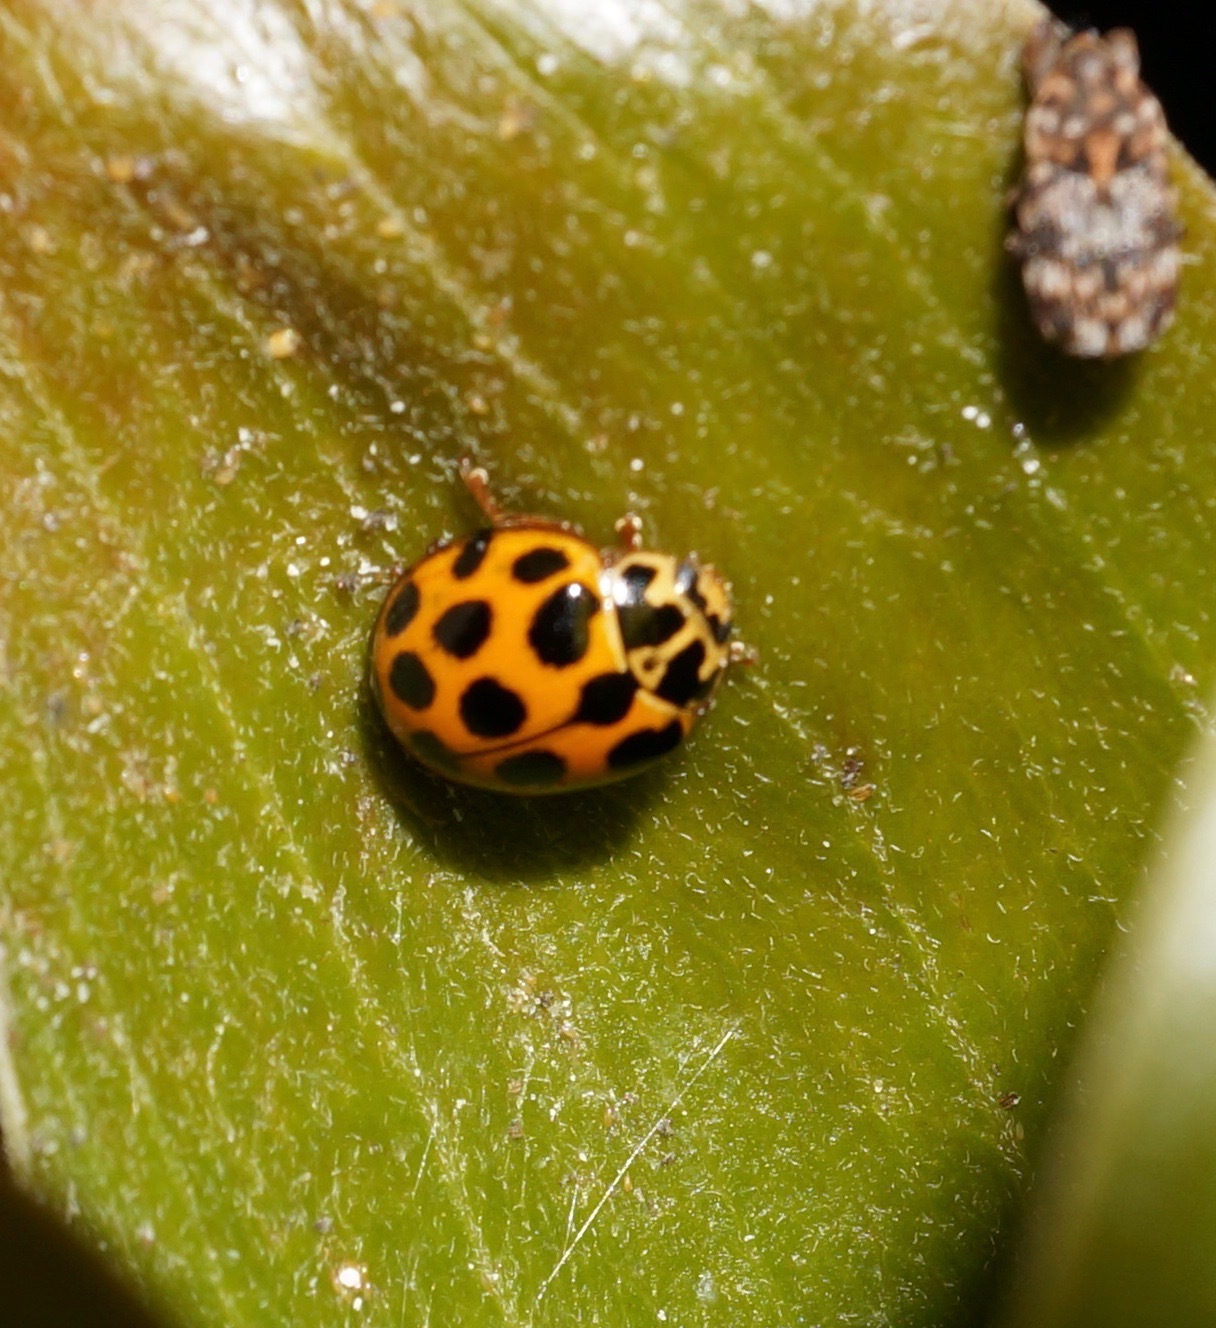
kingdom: Animalia
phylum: Arthropoda
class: Insecta
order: Coleoptera
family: Coccinellidae
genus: Harmonia
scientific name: Harmonia conformis
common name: Common spotted ladybird beetle
